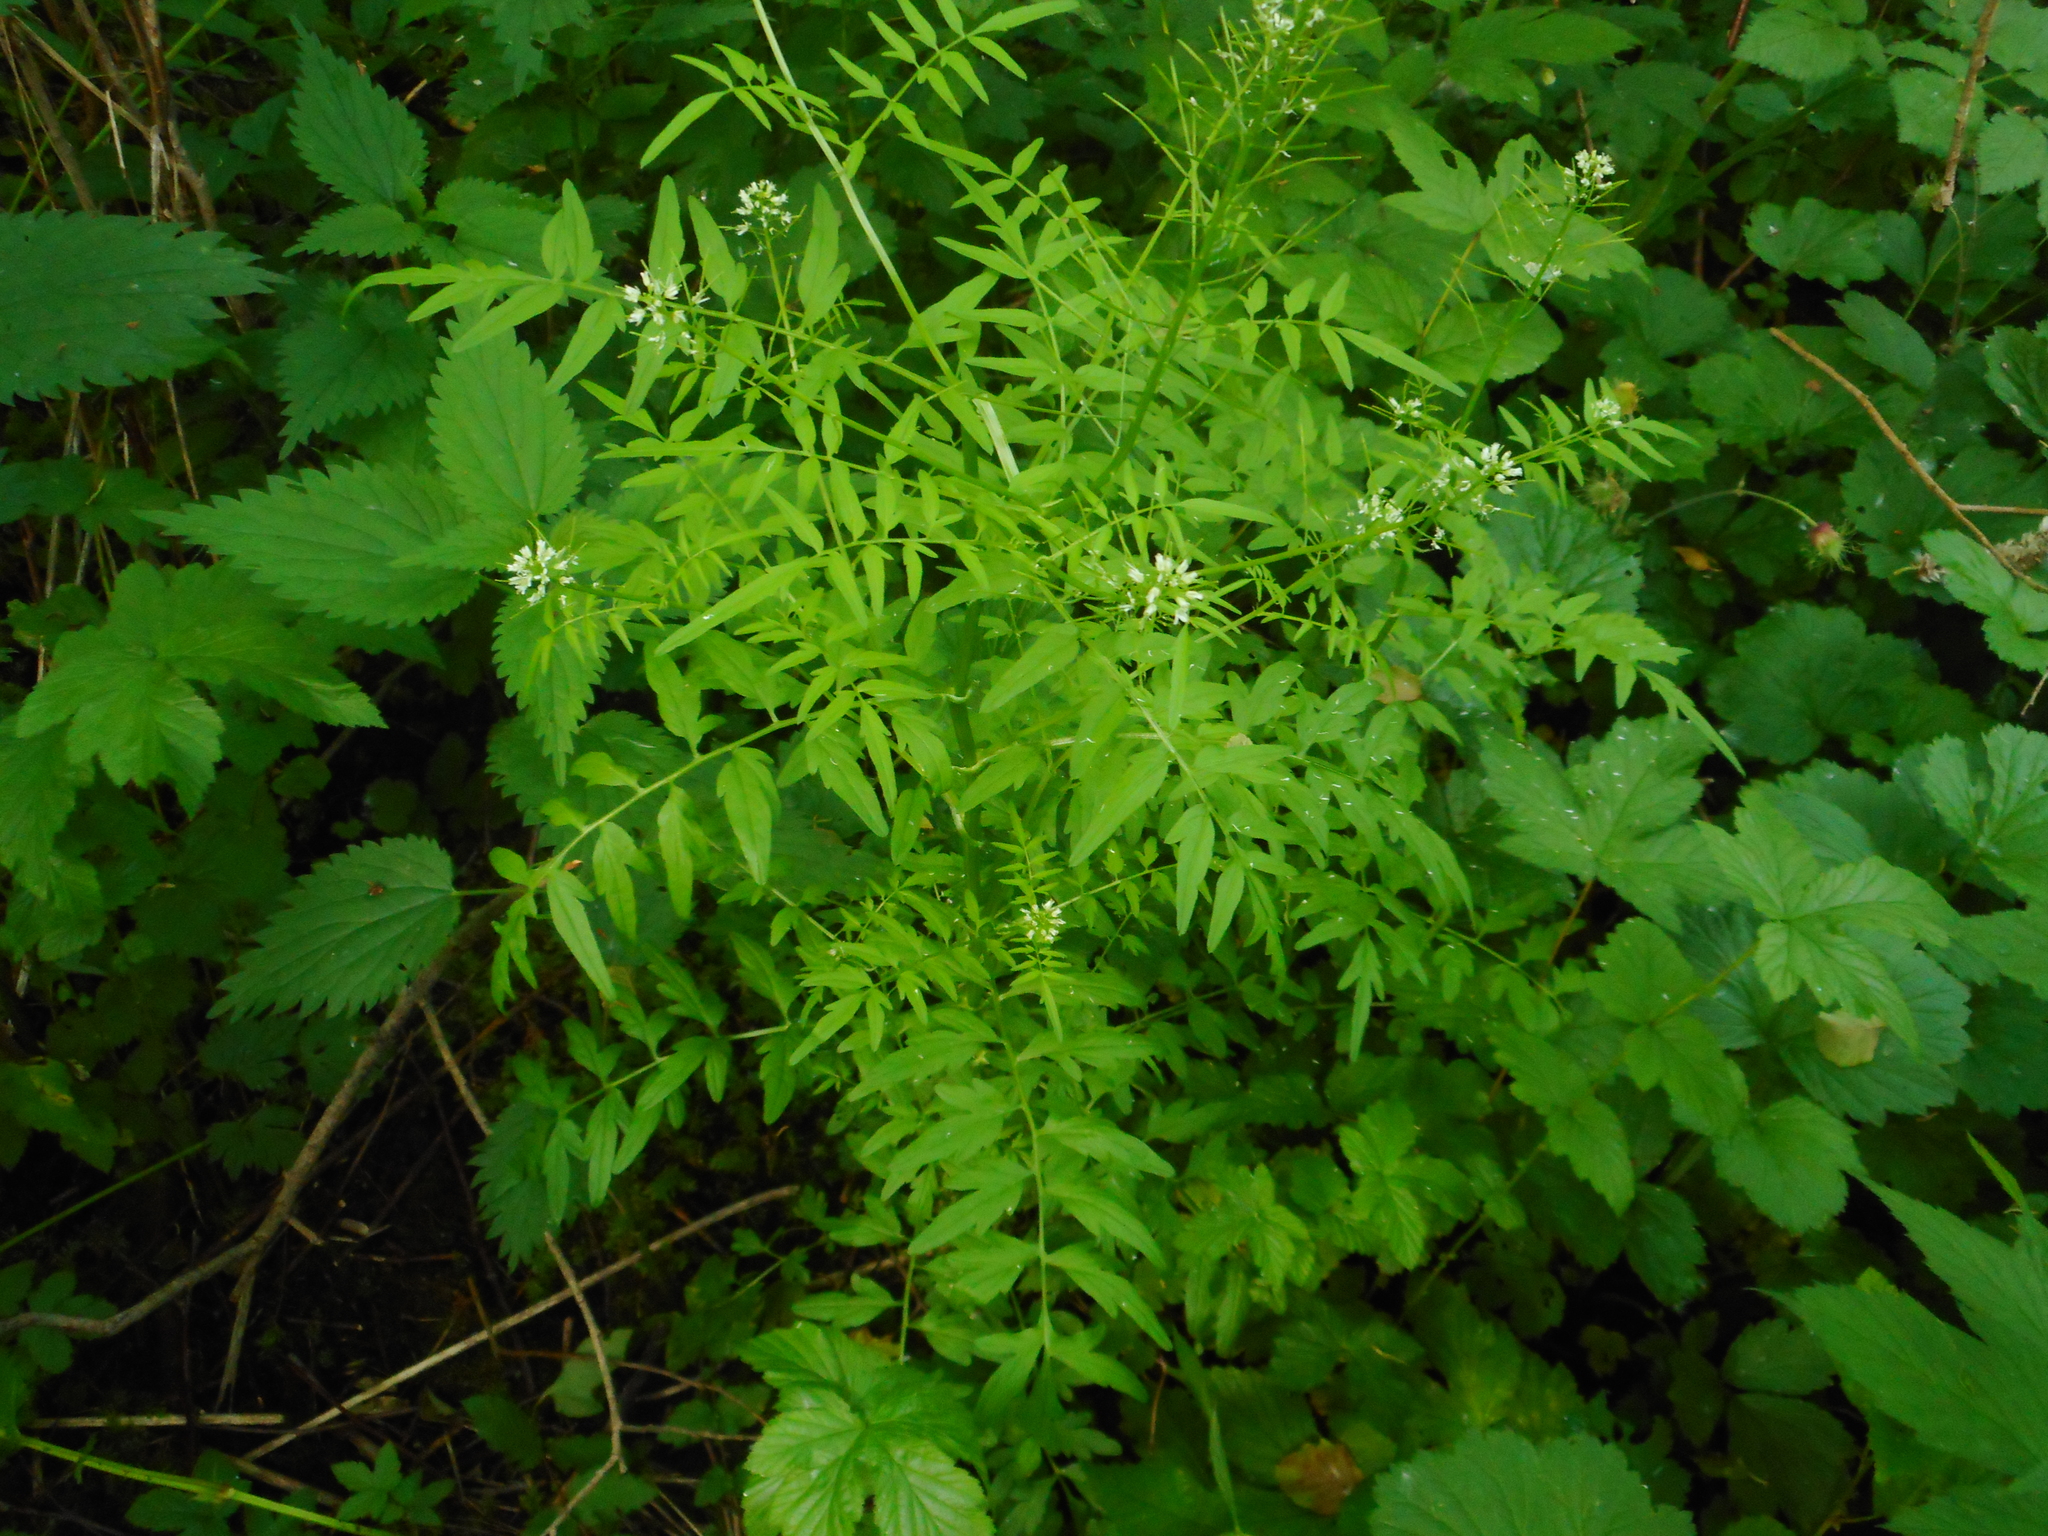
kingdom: Plantae
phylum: Tracheophyta
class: Magnoliopsida
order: Brassicales
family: Brassicaceae
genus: Cardamine
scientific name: Cardamine impatiens
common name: Narrow-leaved bitter-cress
